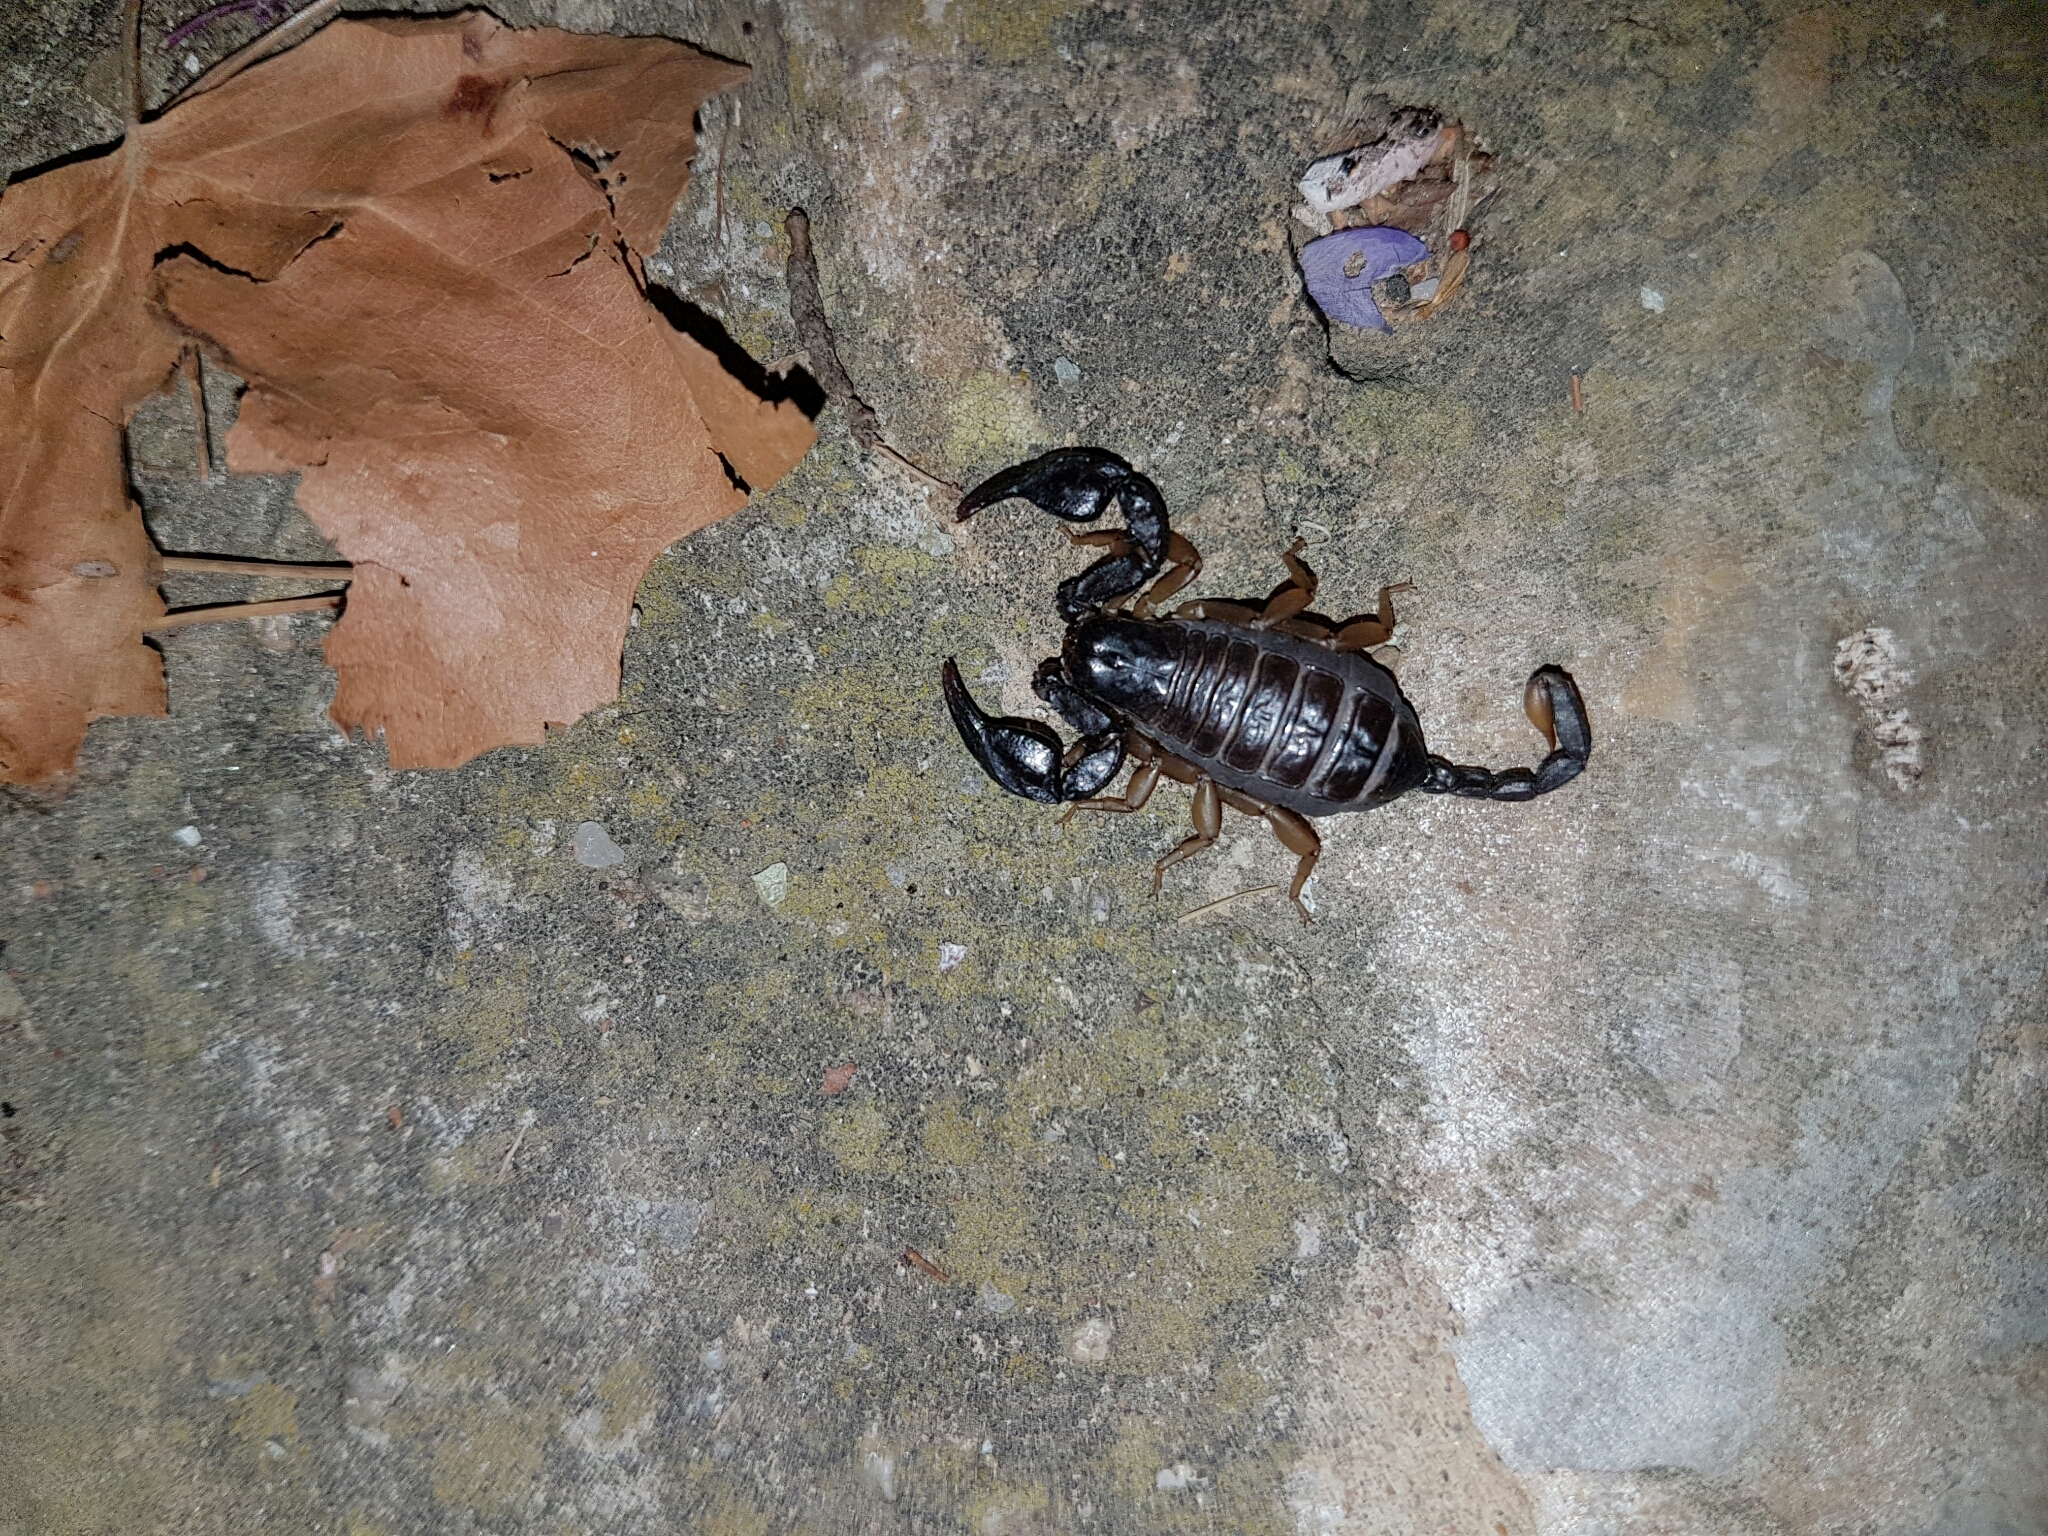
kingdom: Animalia
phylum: Arthropoda
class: Arachnida
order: Scorpiones
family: Euscorpiidae
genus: Euscorpius
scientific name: Euscorpius flavicaudis
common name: European yellow-tailed scorpion
